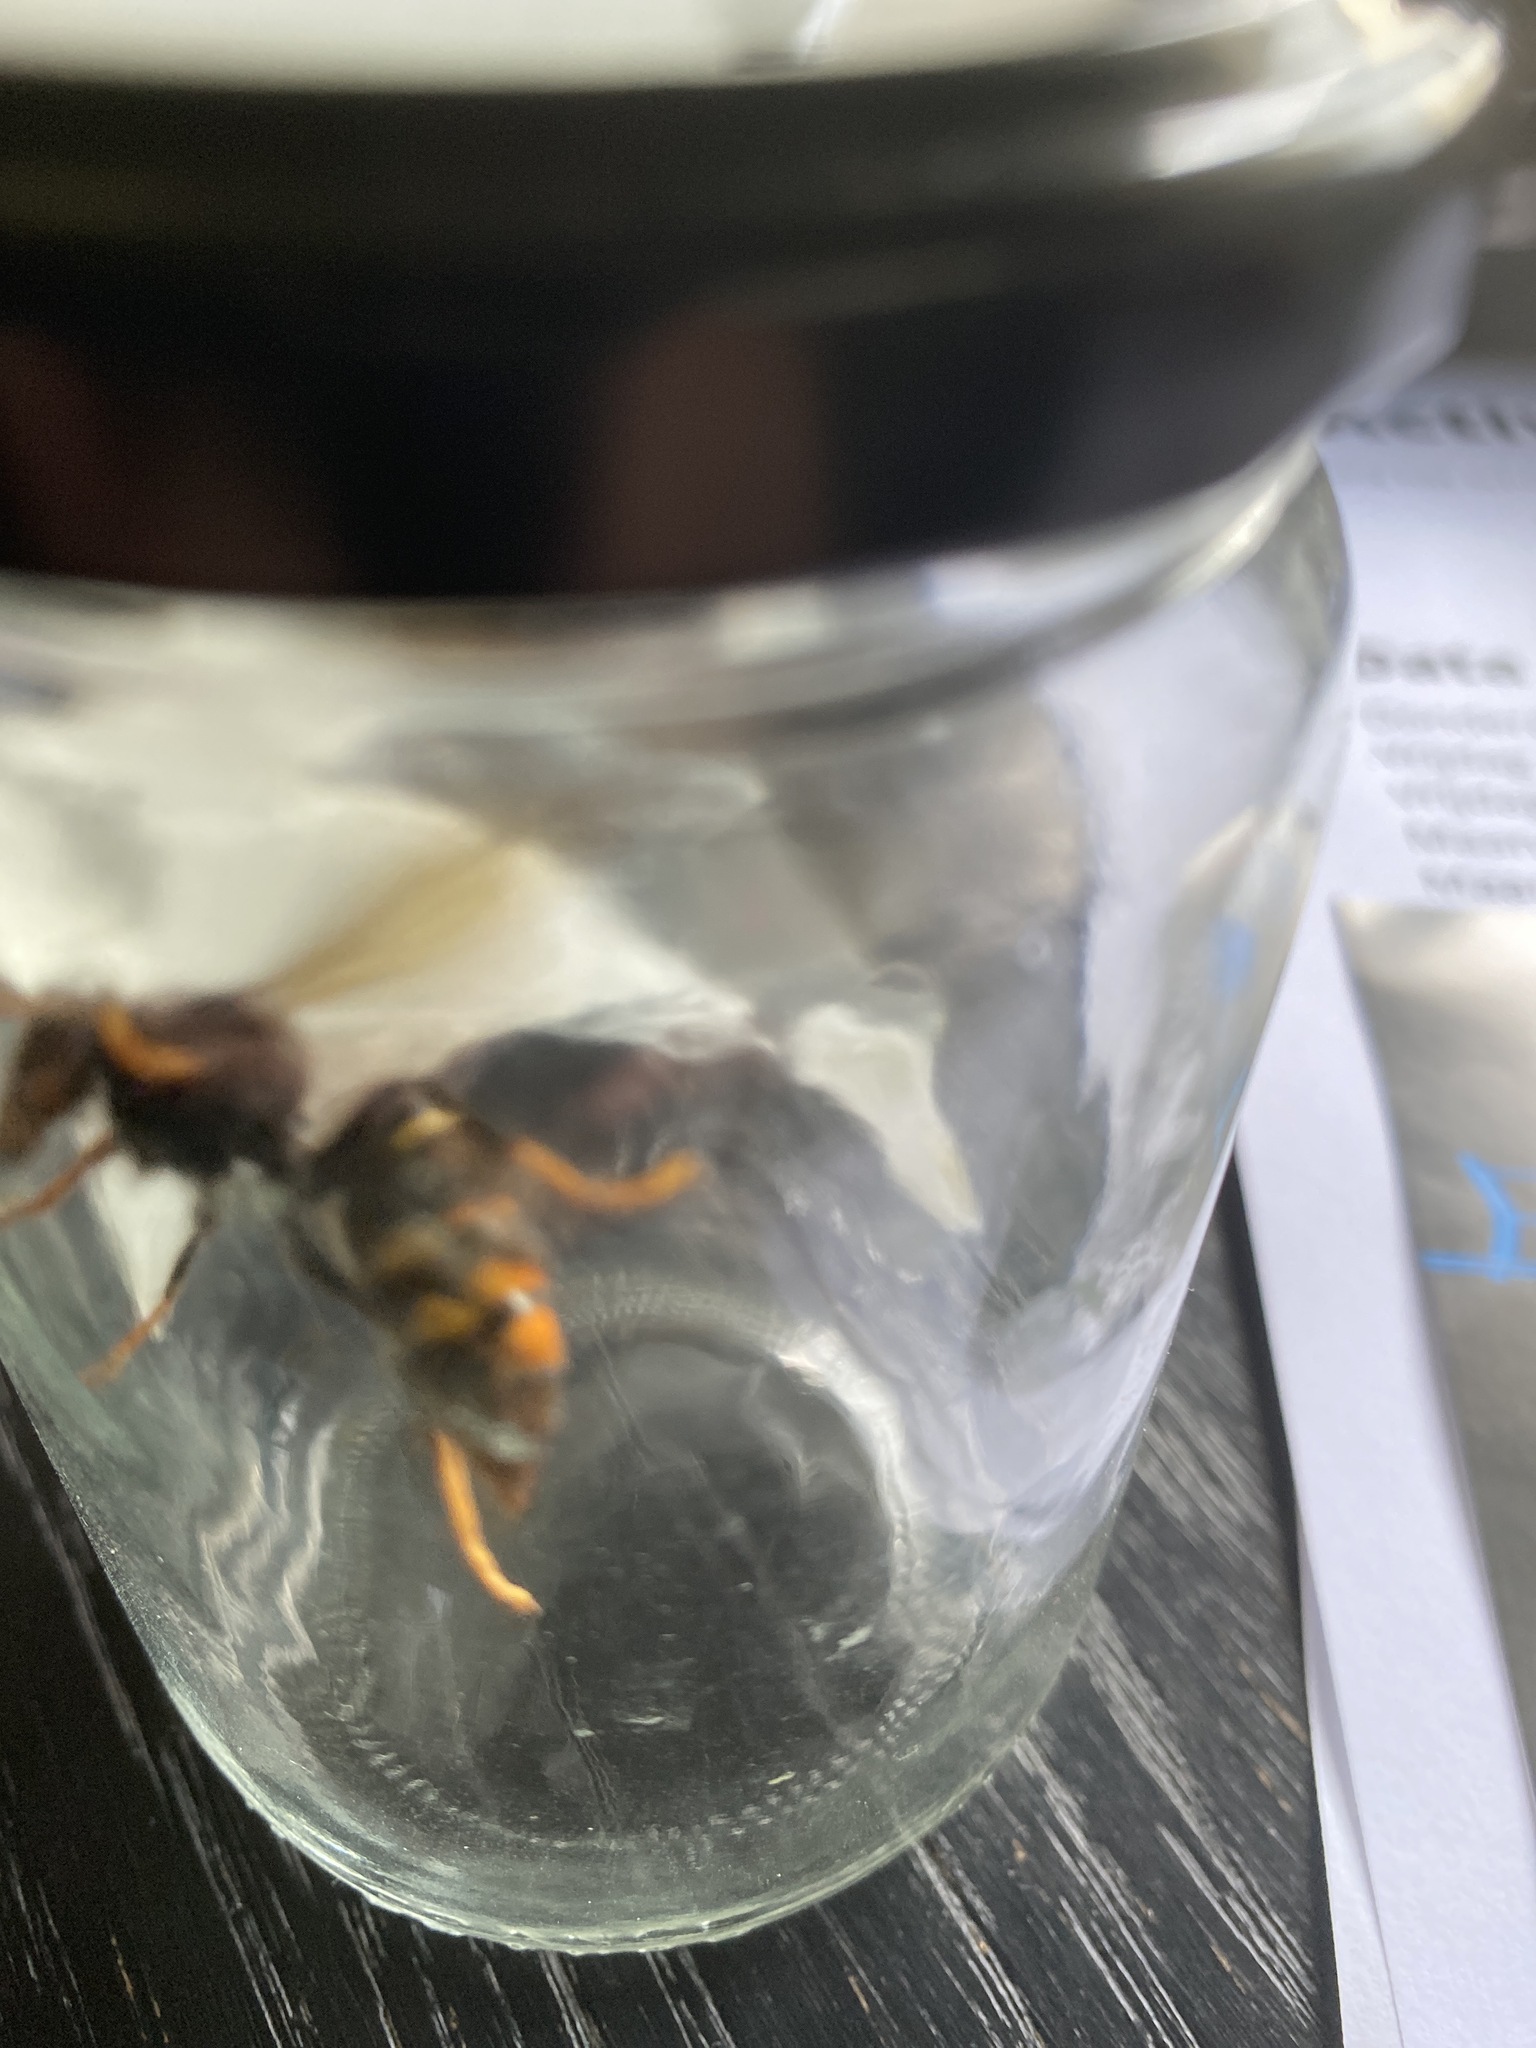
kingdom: Animalia
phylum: Arthropoda
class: Insecta
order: Hymenoptera
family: Vespidae
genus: Vespa
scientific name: Vespa velutina
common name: Asian hornet
